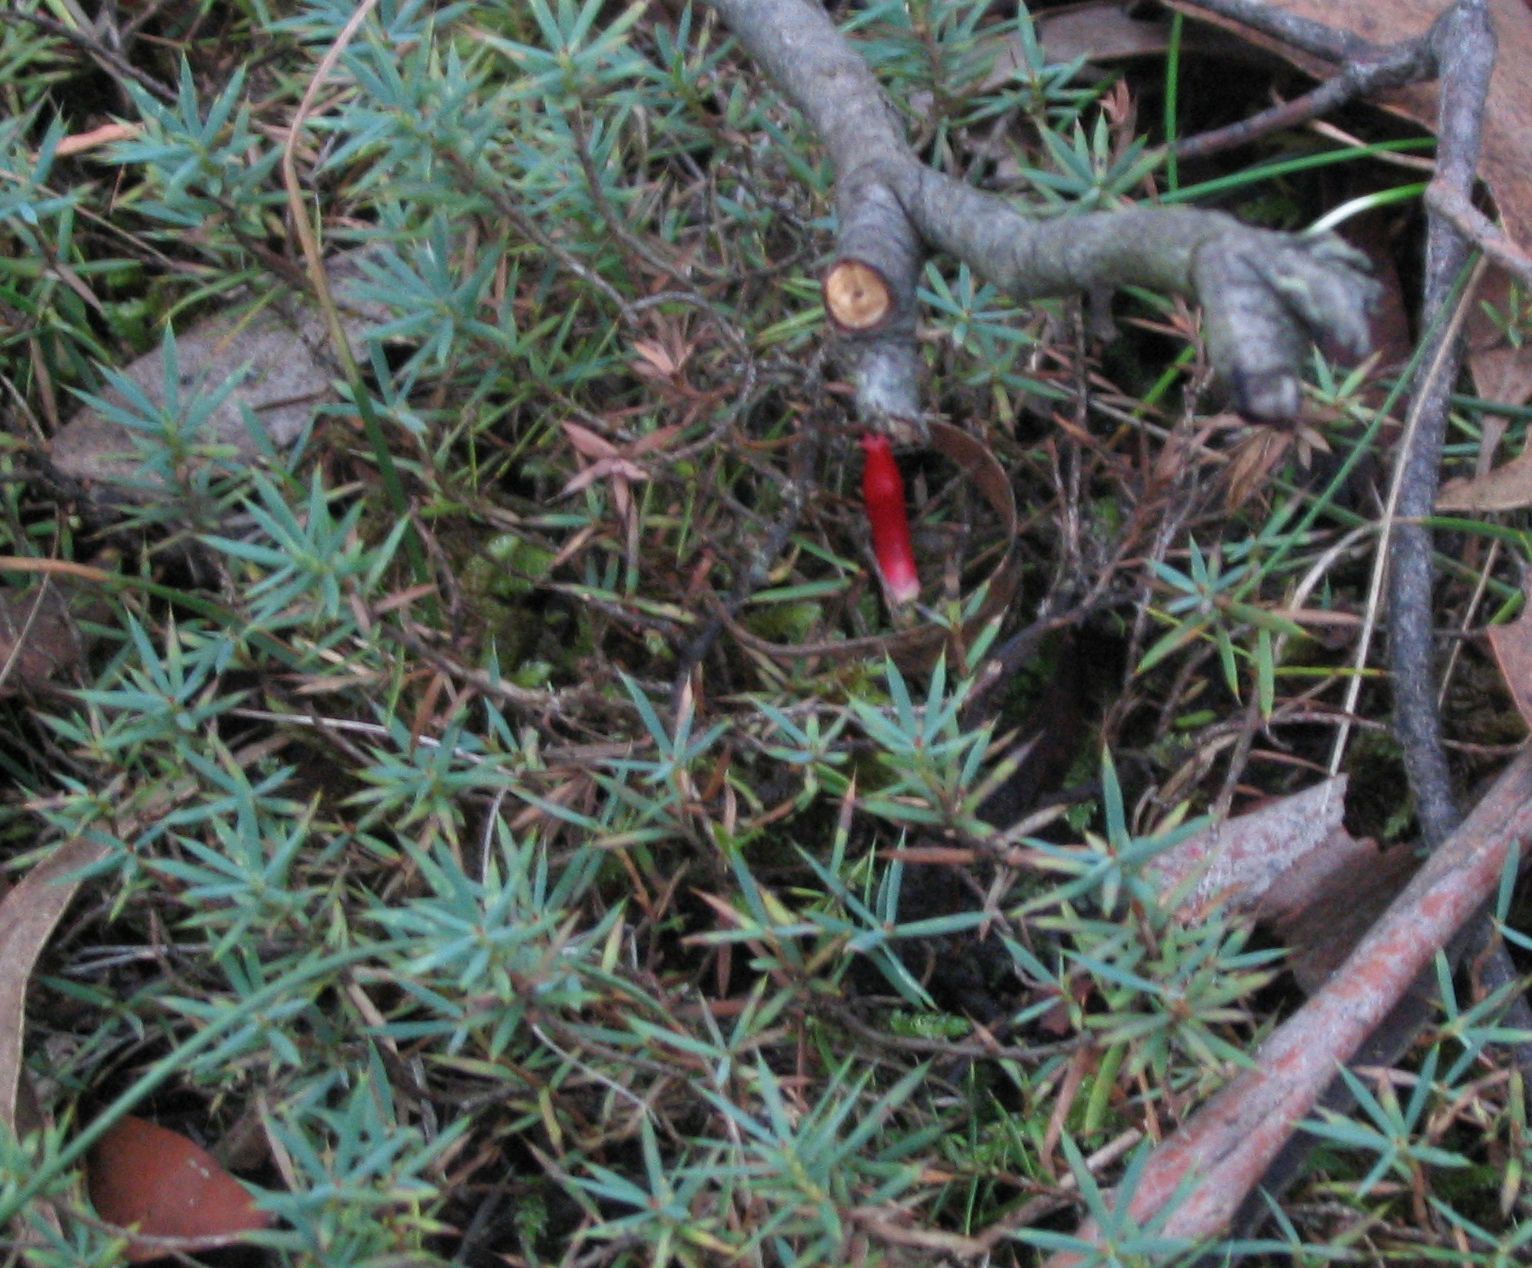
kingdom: Plantae
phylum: Tracheophyta
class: Magnoliopsida
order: Ericales
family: Ericaceae
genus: Styphelia
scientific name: Styphelia humifusa
